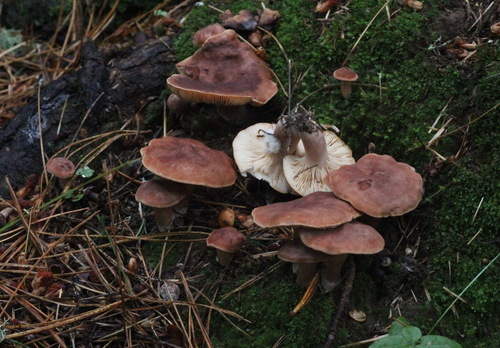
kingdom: Fungi
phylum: Basidiomycota
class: Agaricomycetes
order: Russulales
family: Russulaceae
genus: Lactarius
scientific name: Lactarius rufus
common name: Rufous milk-cap
